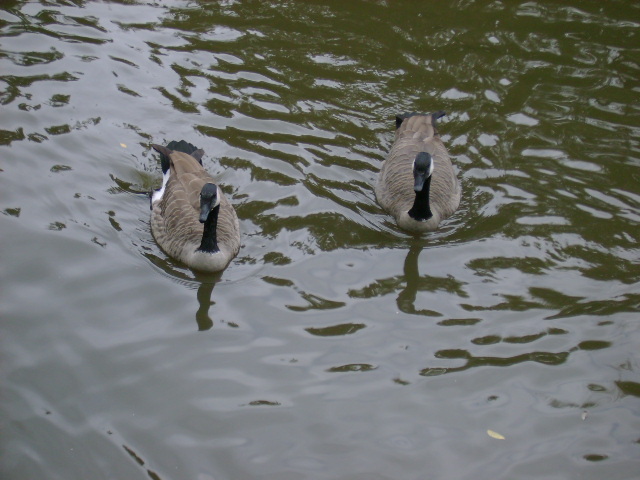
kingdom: Animalia
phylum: Chordata
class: Aves
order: Anseriformes
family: Anatidae
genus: Branta
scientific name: Branta canadensis
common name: Canada goose
